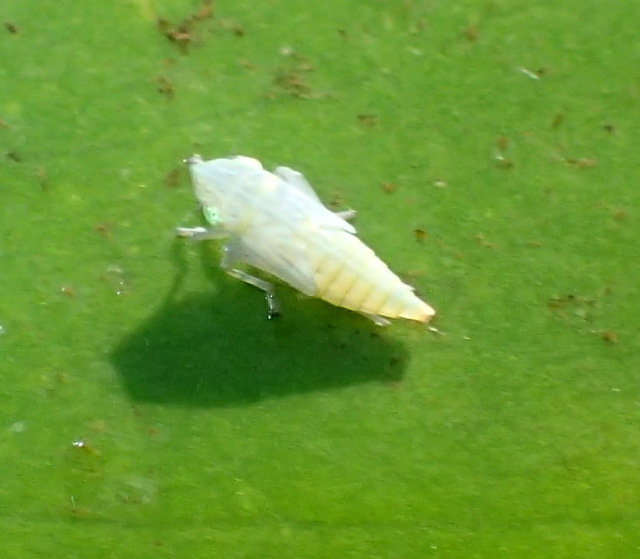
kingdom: Animalia
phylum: Arthropoda
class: Insecta
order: Hemiptera
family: Cicadellidae
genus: Draeculacephala
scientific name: Draeculacephala inscripta
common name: Leafhopper
